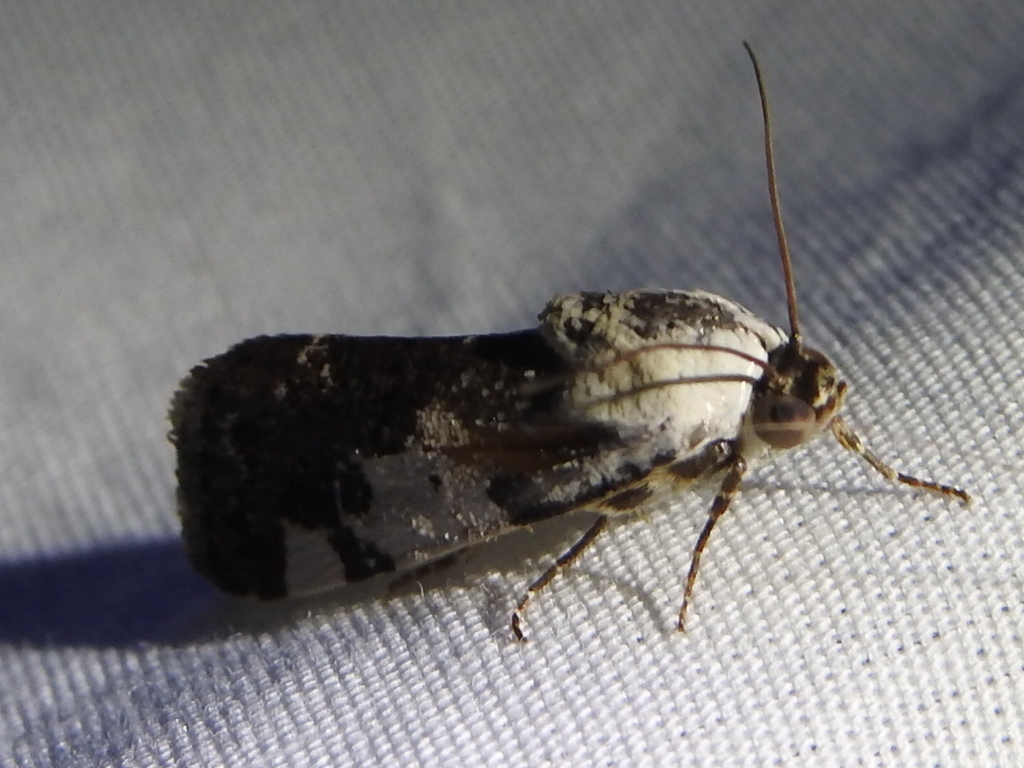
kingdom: Animalia
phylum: Arthropoda
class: Insecta
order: Lepidoptera
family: Noctuidae
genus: Acontia
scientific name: Acontia aprica
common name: Nun
